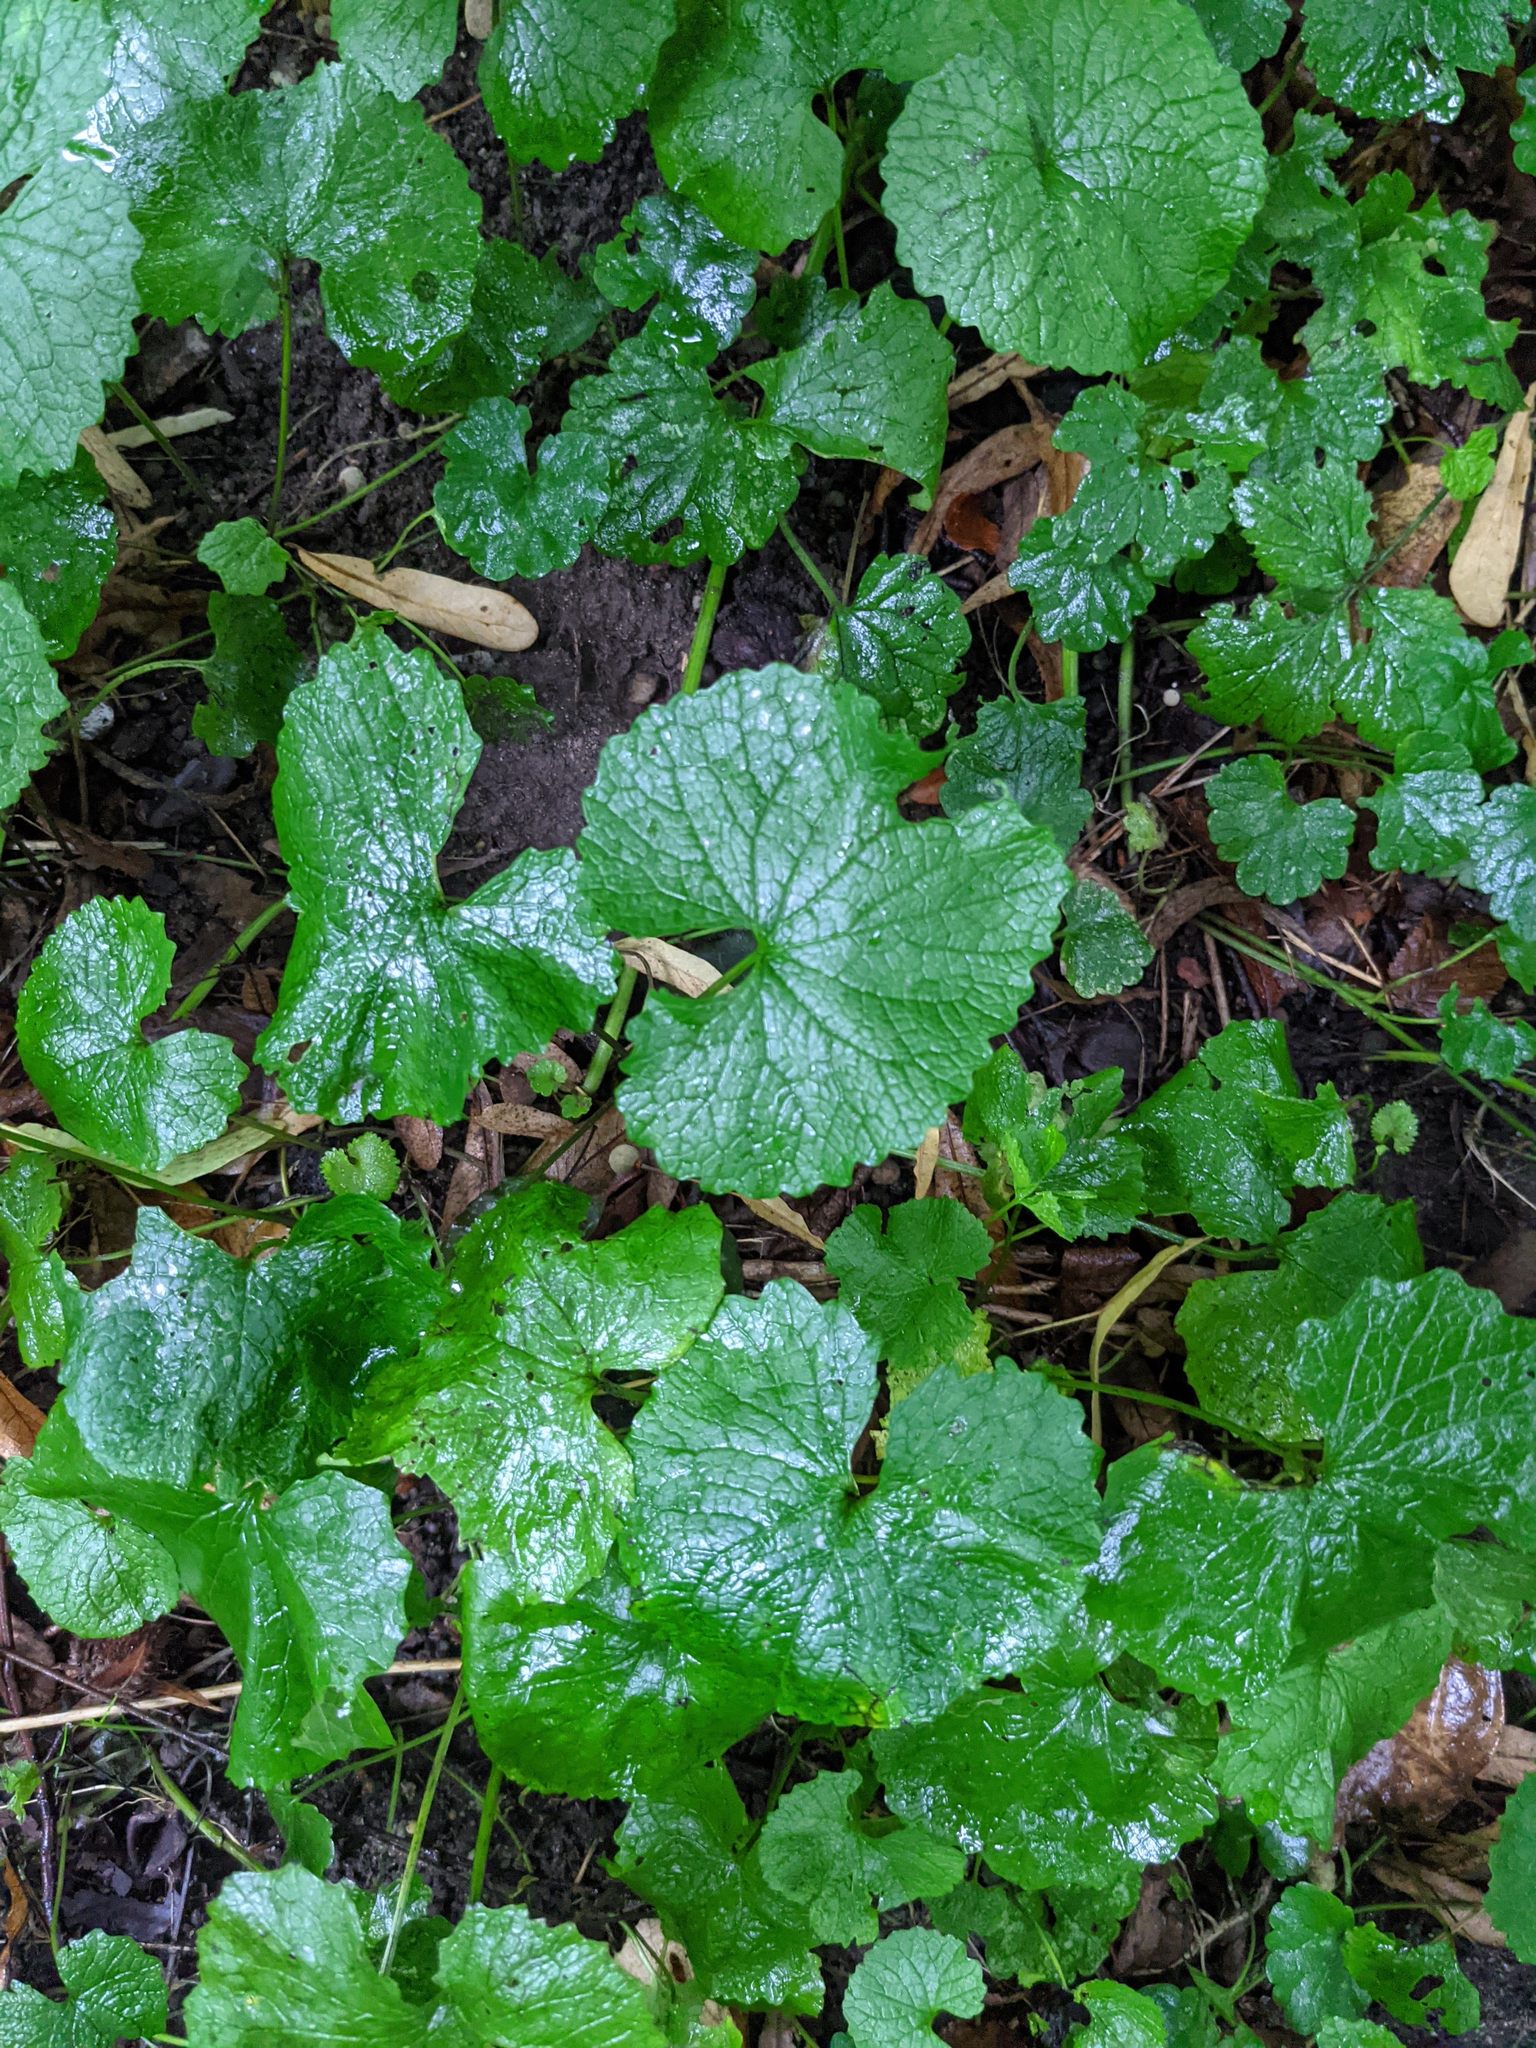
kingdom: Plantae
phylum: Tracheophyta
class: Magnoliopsida
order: Brassicales
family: Brassicaceae
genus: Alliaria
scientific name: Alliaria petiolata
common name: Garlic mustard
